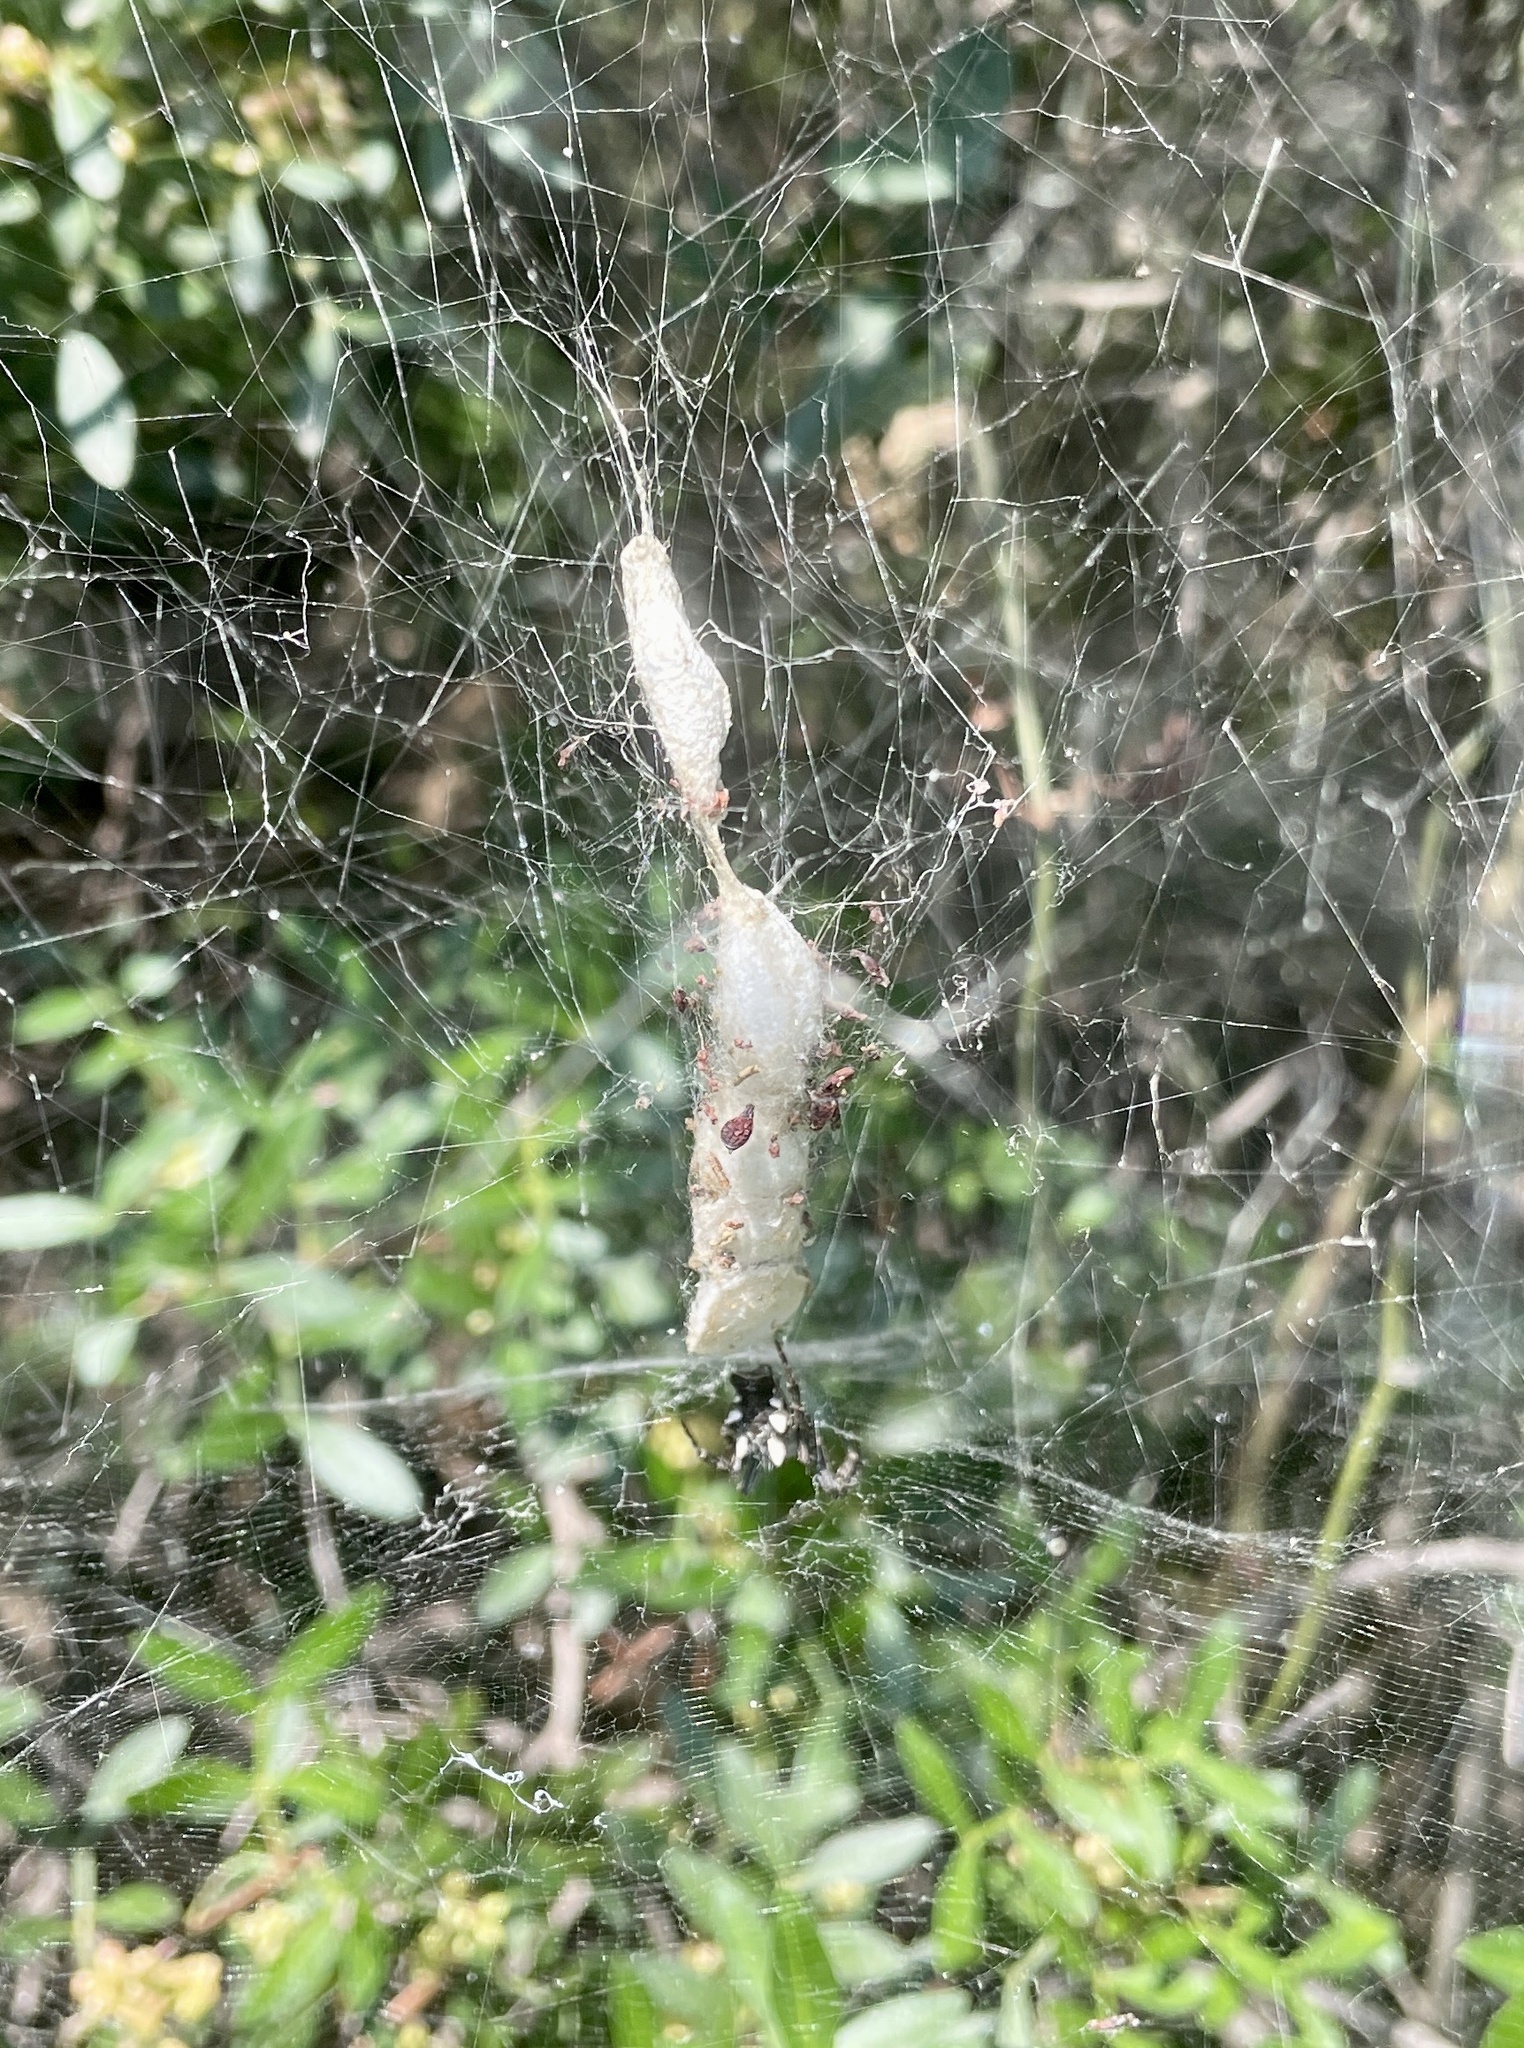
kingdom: Animalia
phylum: Arthropoda
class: Arachnida
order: Araneae
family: Araneidae
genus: Cyrtophora
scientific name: Cyrtophora citricola
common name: Orb weavers
